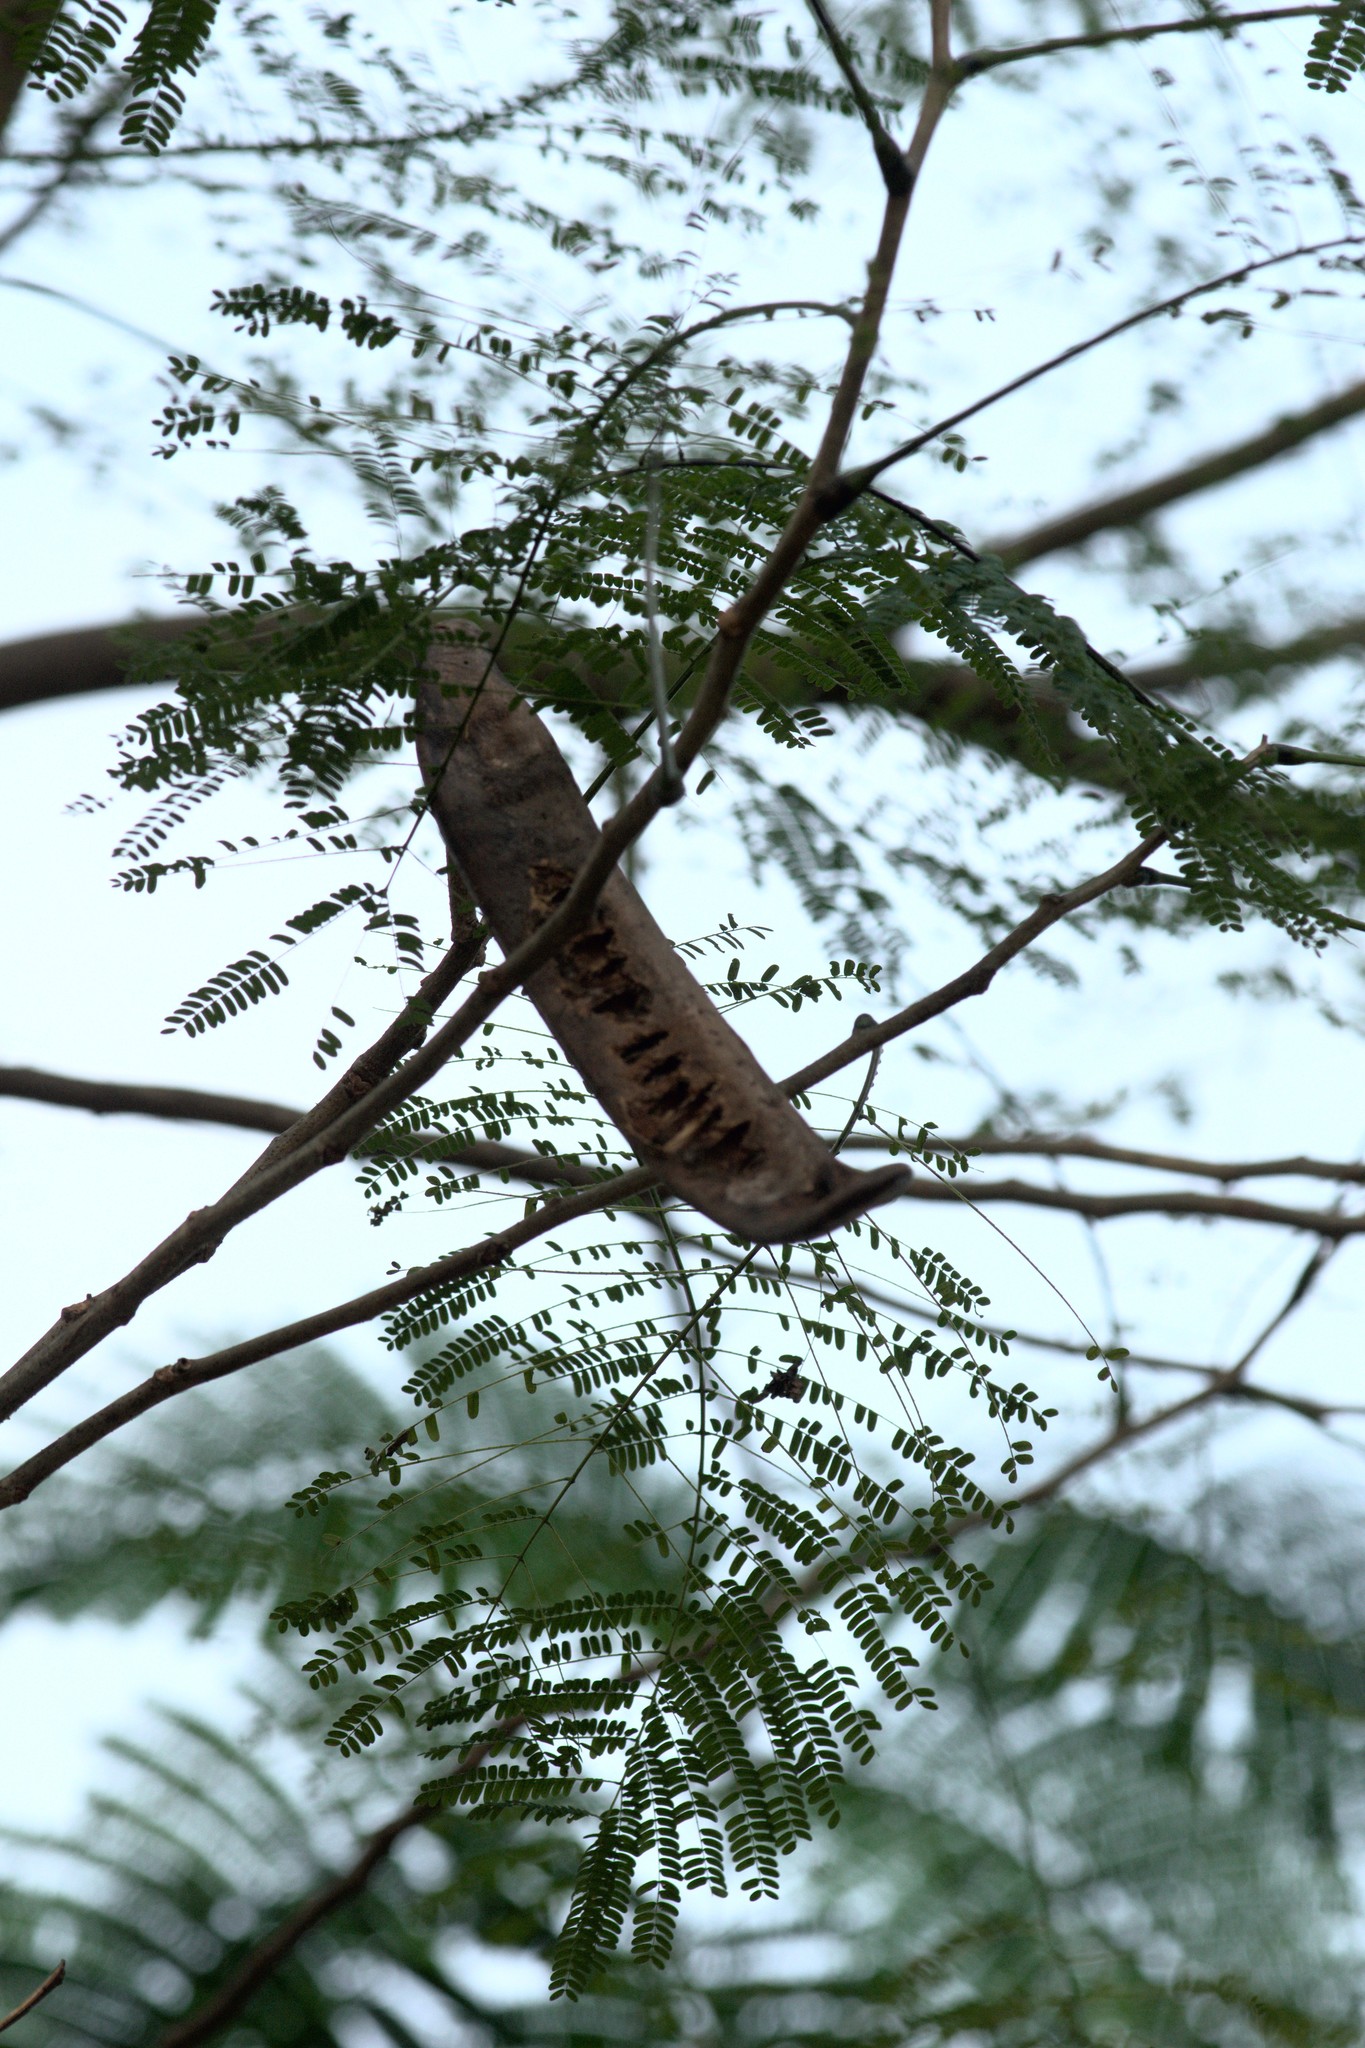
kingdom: Plantae
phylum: Tracheophyta
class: Magnoliopsida
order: Fabales
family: Fabaceae
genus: Delonix
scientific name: Delonix regia
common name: Royal poinciana
